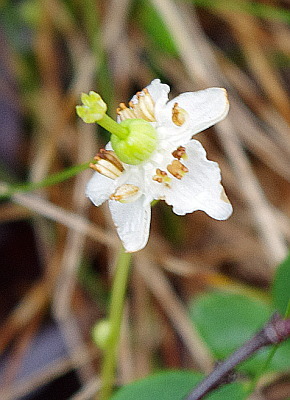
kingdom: Plantae
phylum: Tracheophyta
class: Magnoliopsida
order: Ericales
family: Ericaceae
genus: Moneses
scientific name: Moneses uniflora
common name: One-flowered wintergreen
